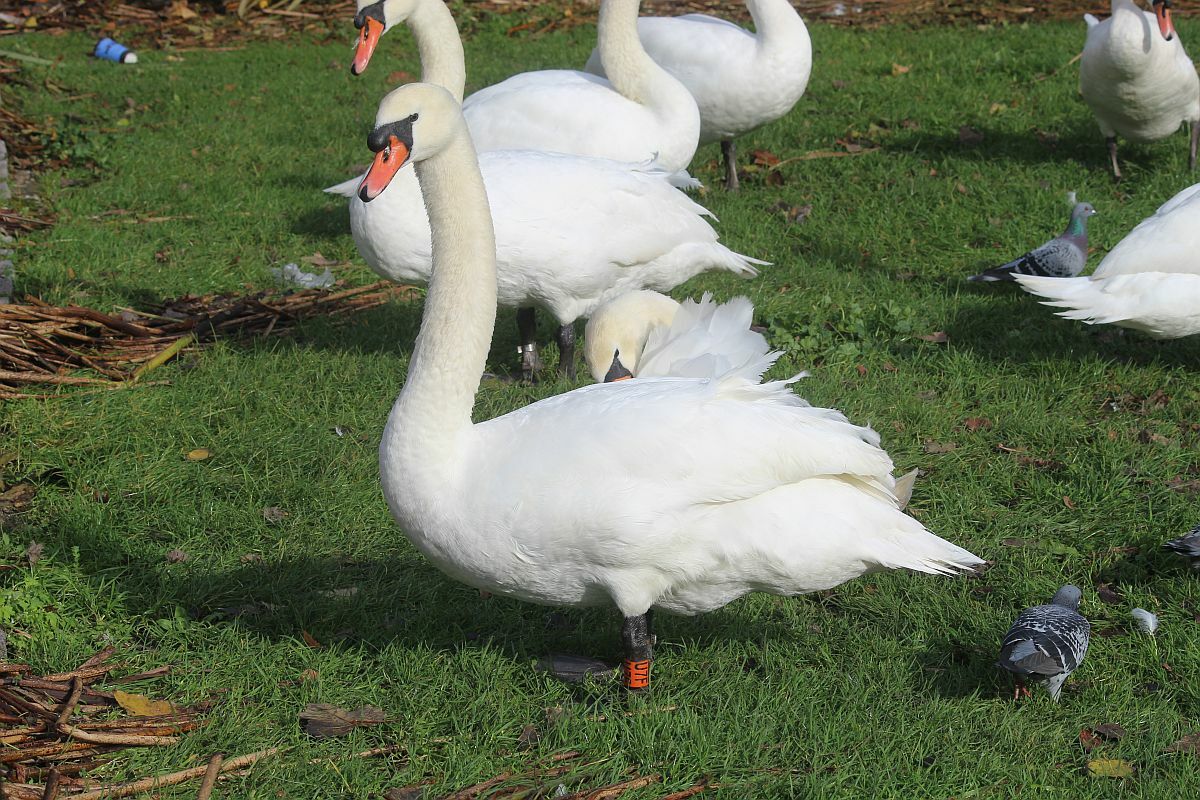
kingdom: Animalia
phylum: Chordata
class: Aves
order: Anseriformes
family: Anatidae
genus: Cygnus
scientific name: Cygnus olor
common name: Mute swan
